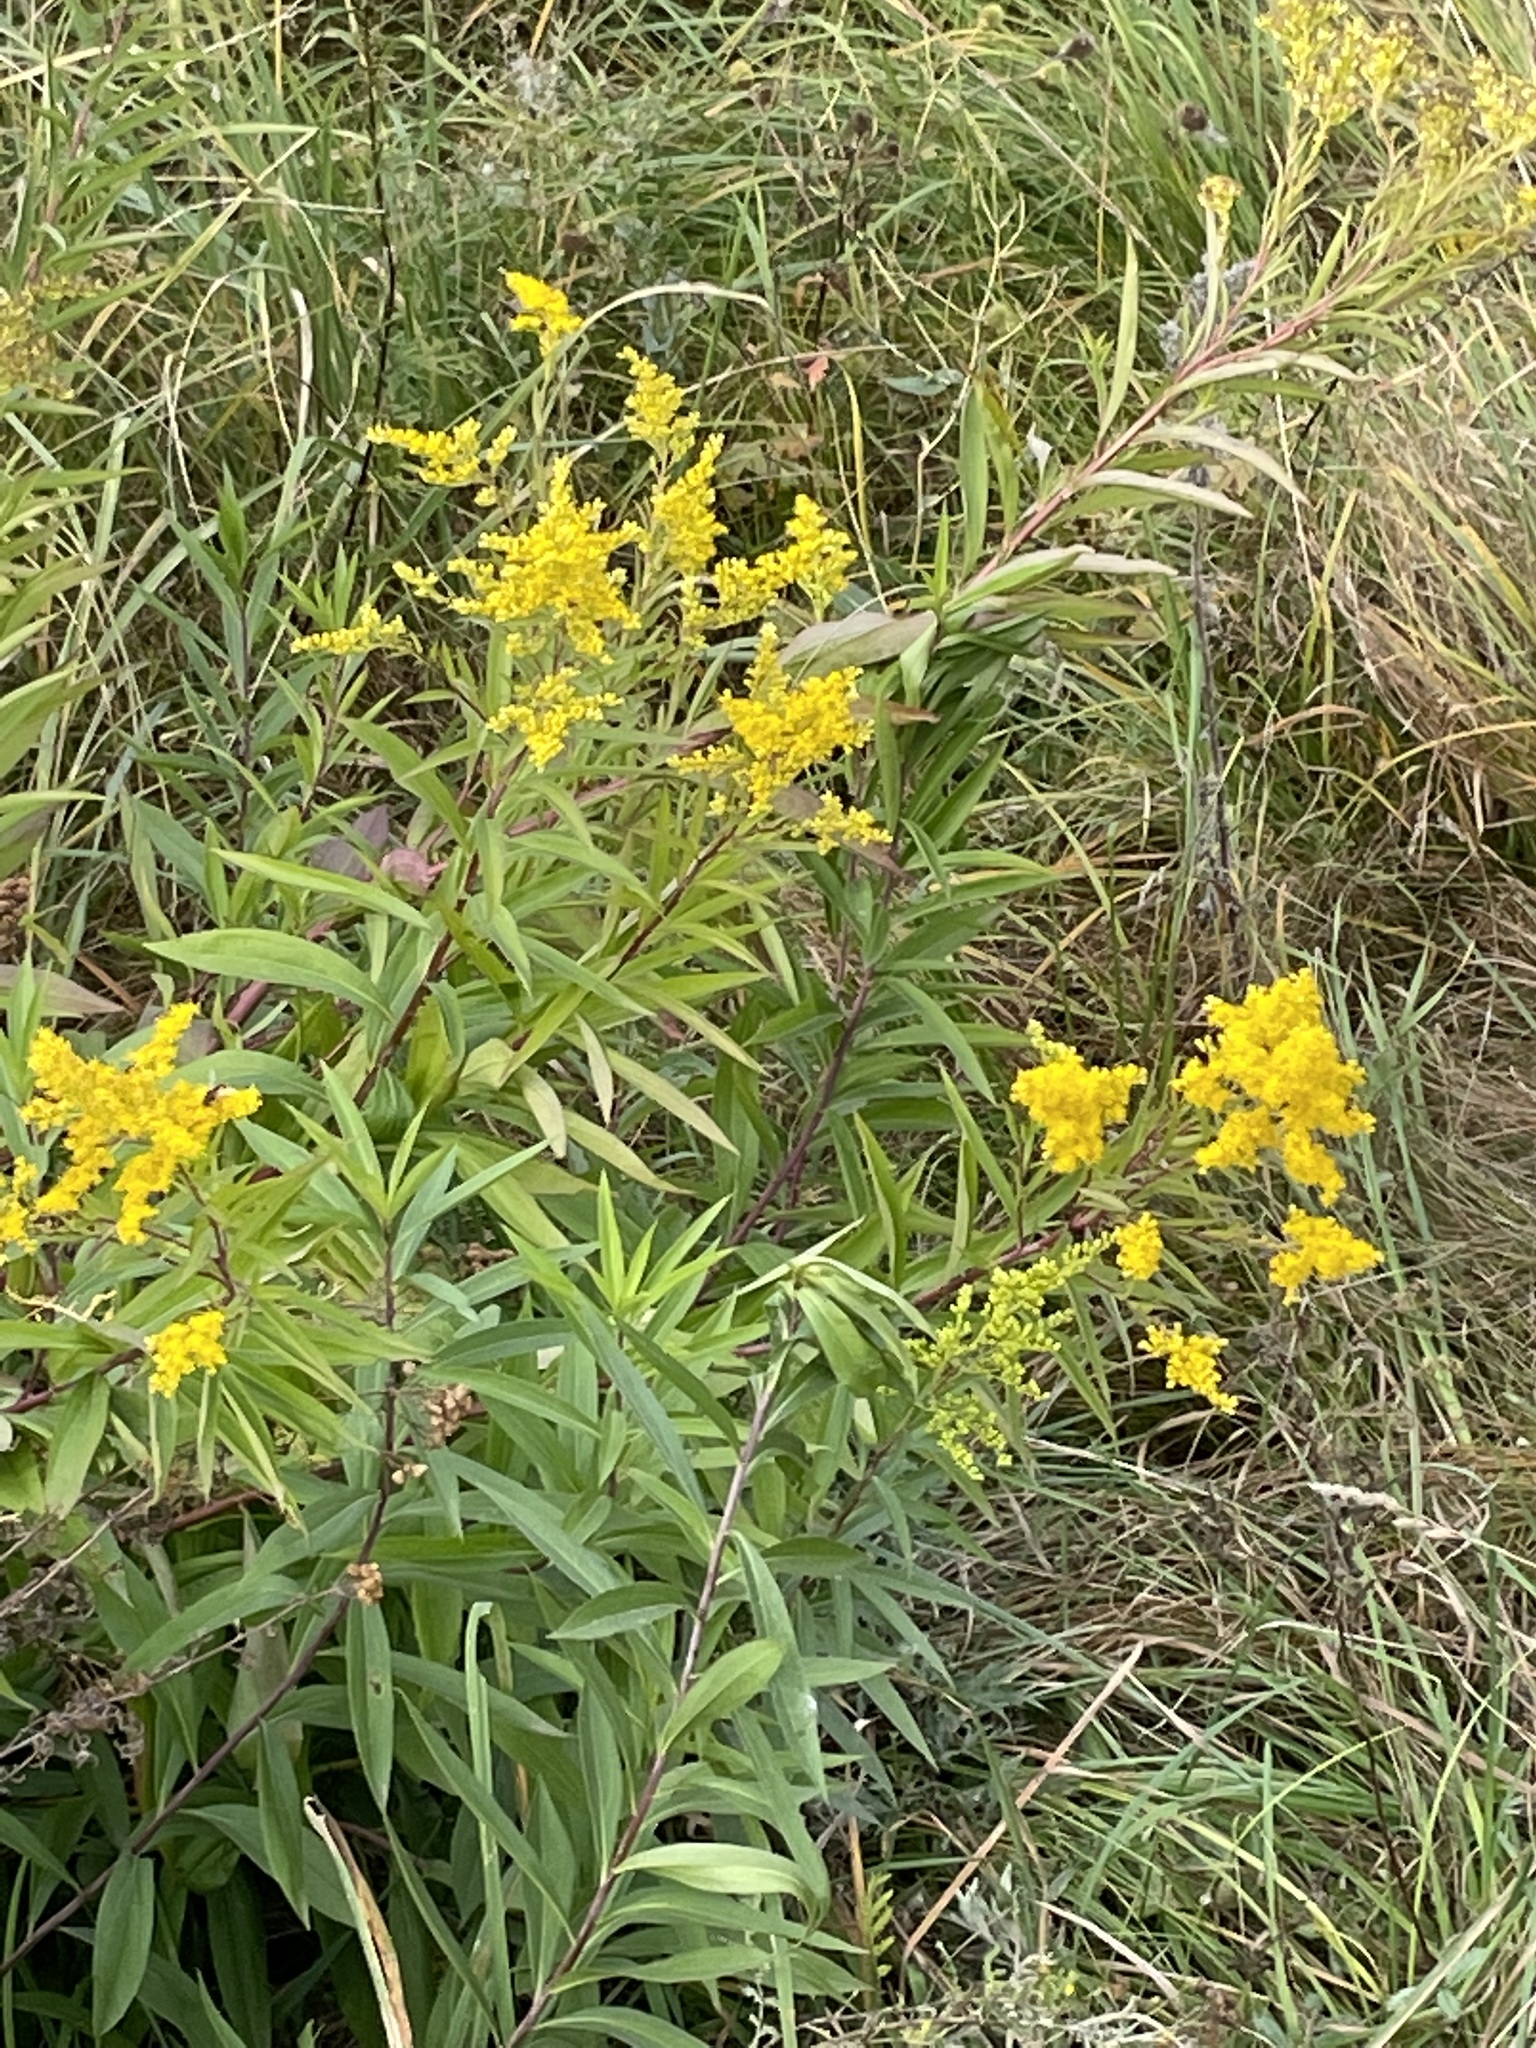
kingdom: Plantae
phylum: Tracheophyta
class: Magnoliopsida
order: Asterales
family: Asteraceae
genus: Solidago
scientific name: Solidago gigantea
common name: Giant goldenrod
